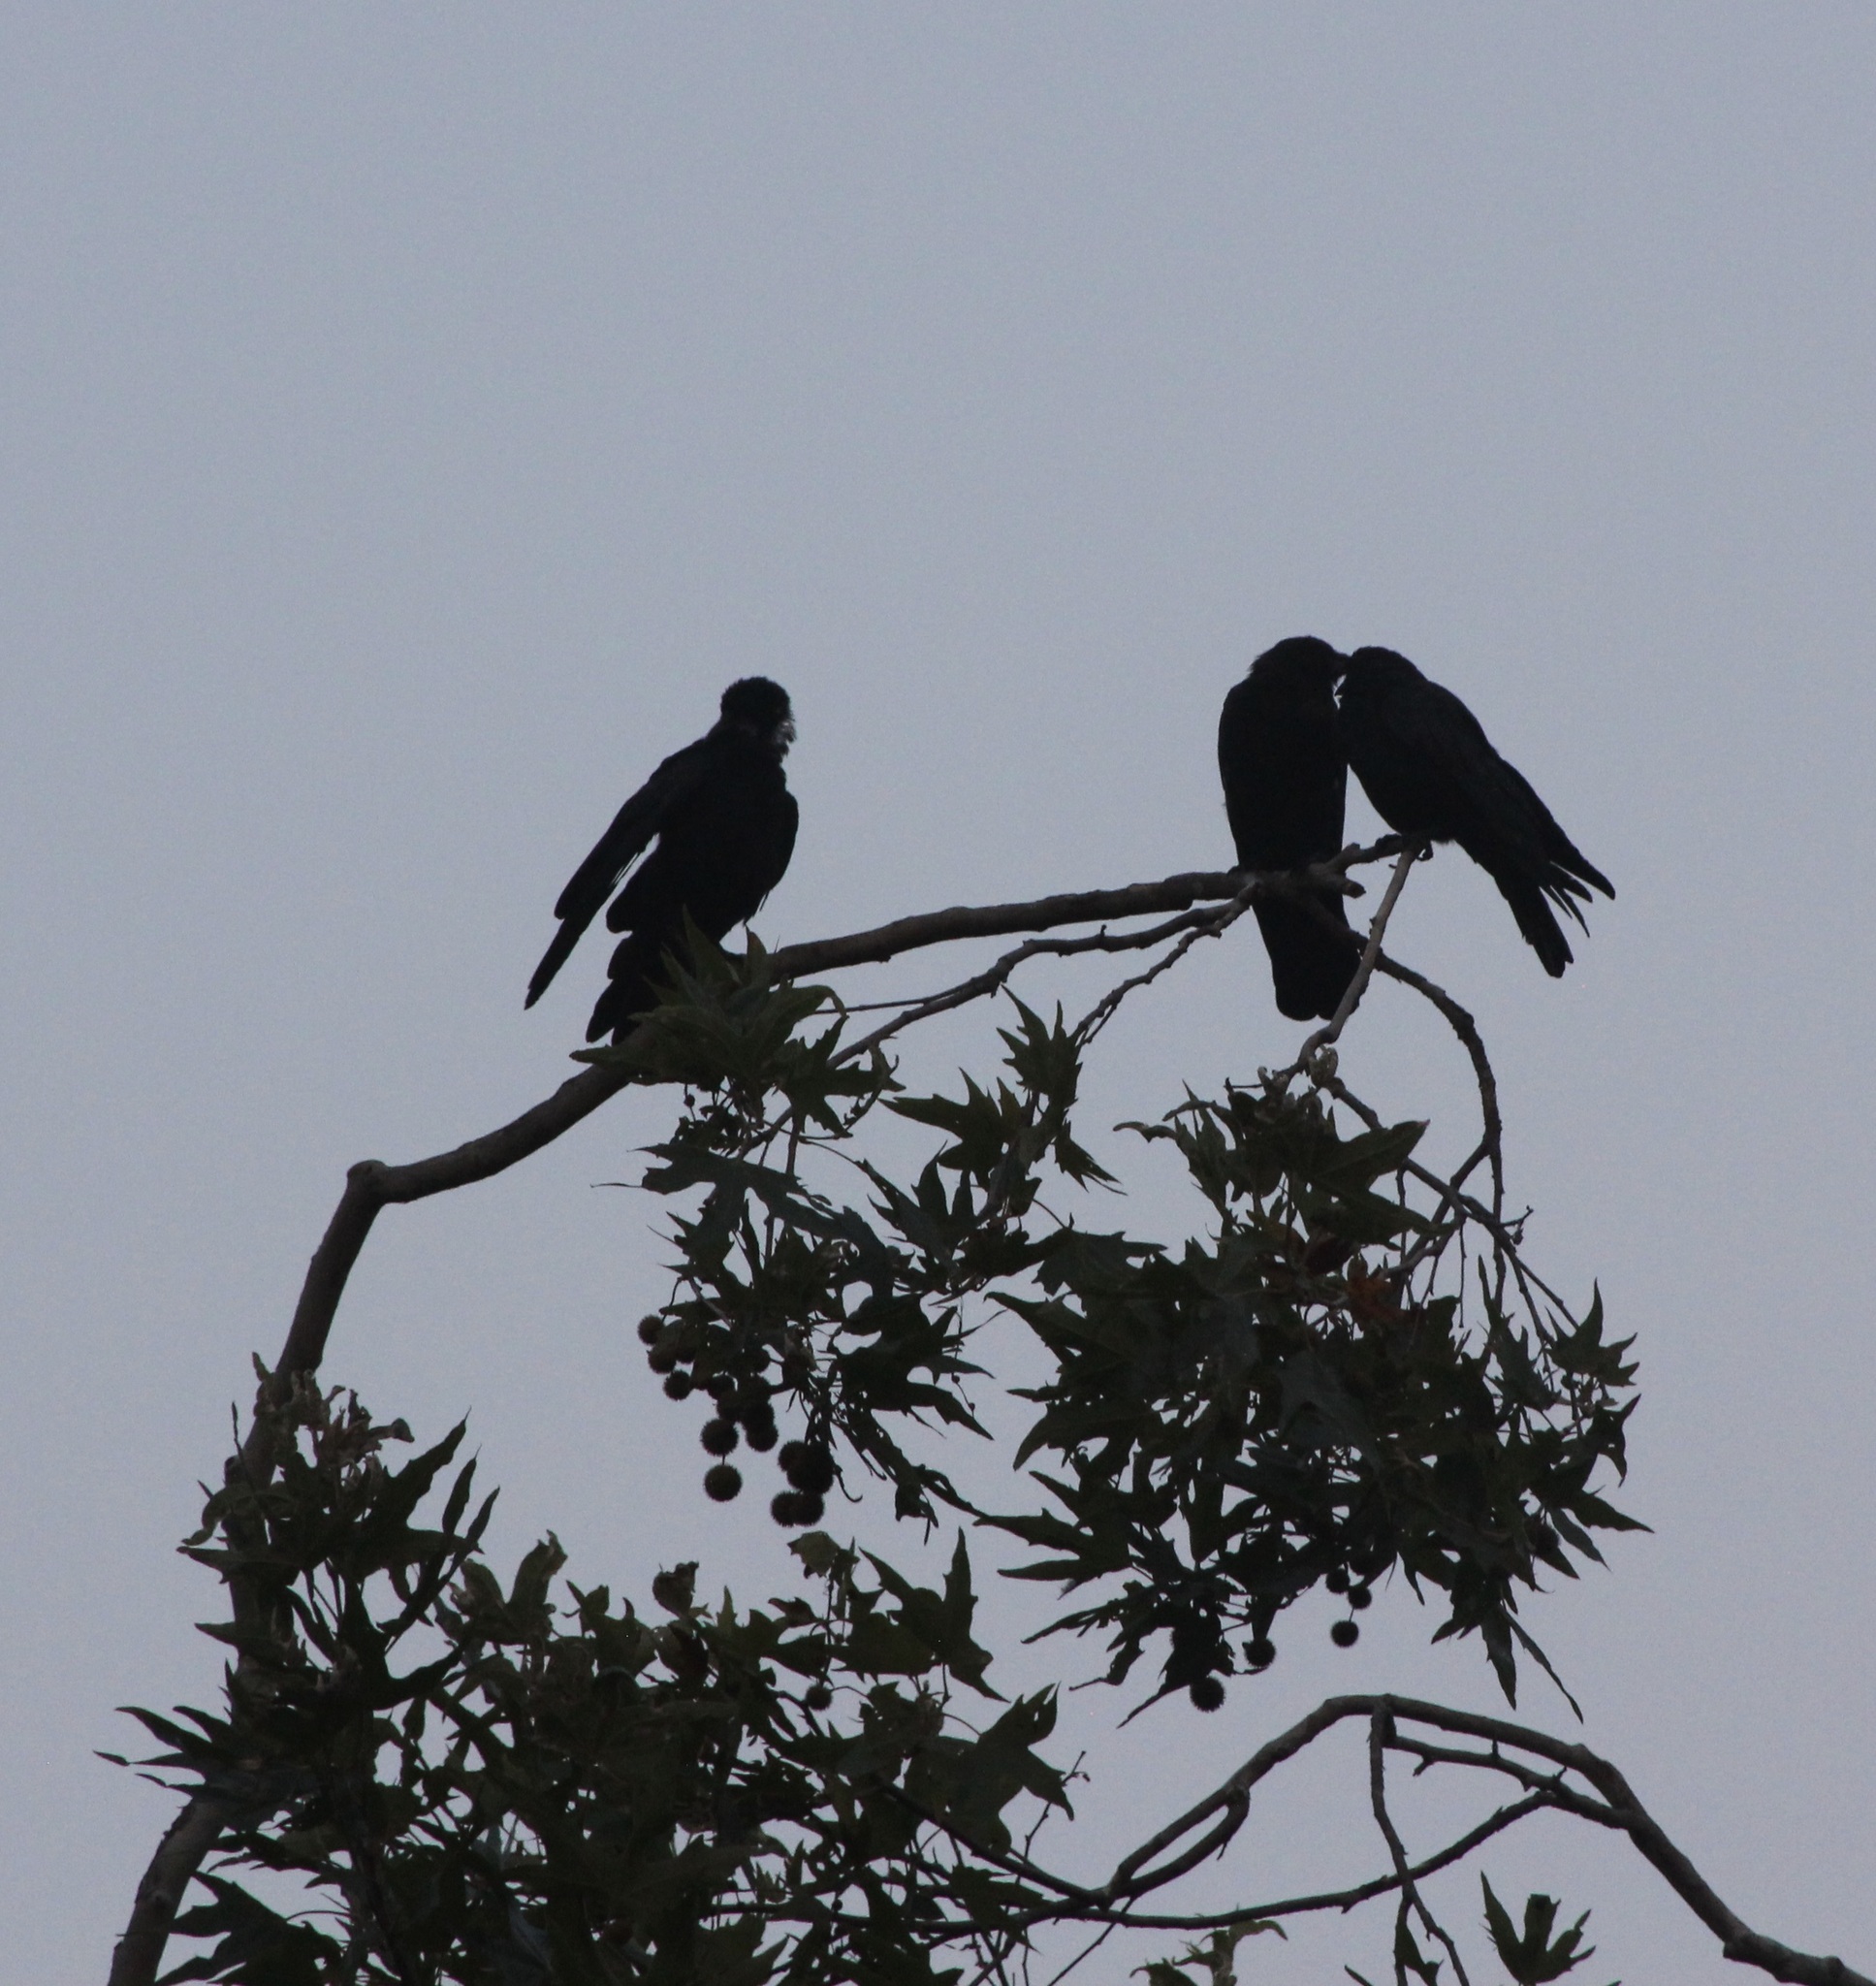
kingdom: Animalia
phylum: Chordata
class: Aves
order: Passeriformes
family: Corvidae
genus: Corvus
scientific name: Corvus brachyrhynchos
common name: American crow
